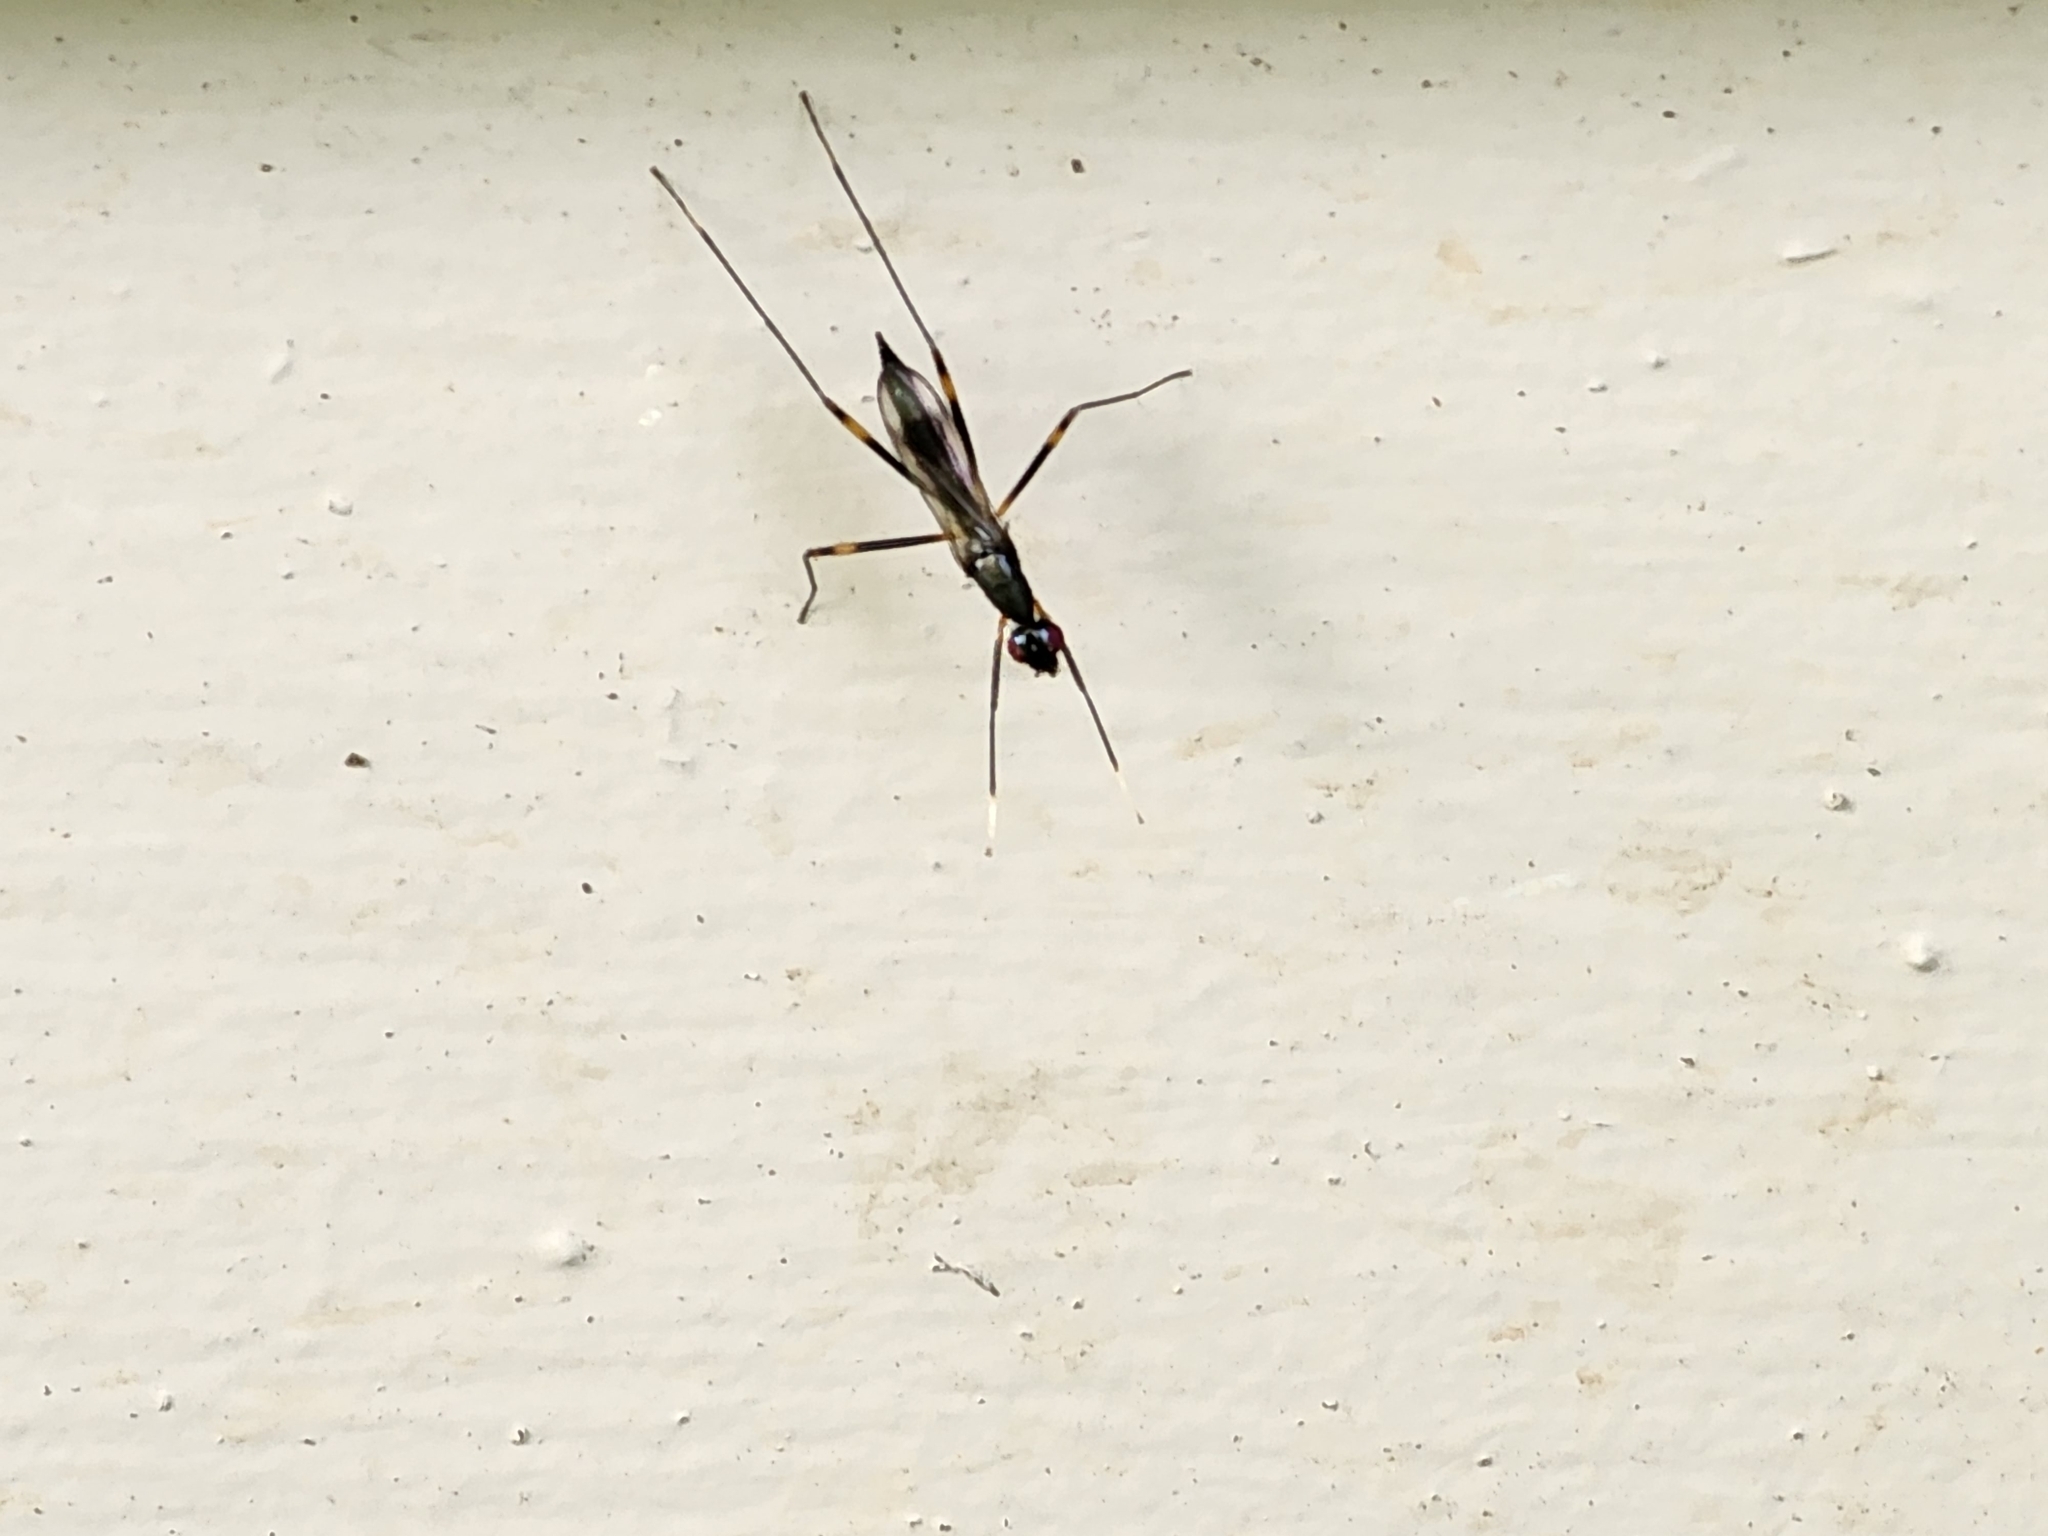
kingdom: Animalia
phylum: Arthropoda
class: Insecta
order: Diptera
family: Micropezidae
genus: Rainieria
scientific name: Rainieria antennaepes
